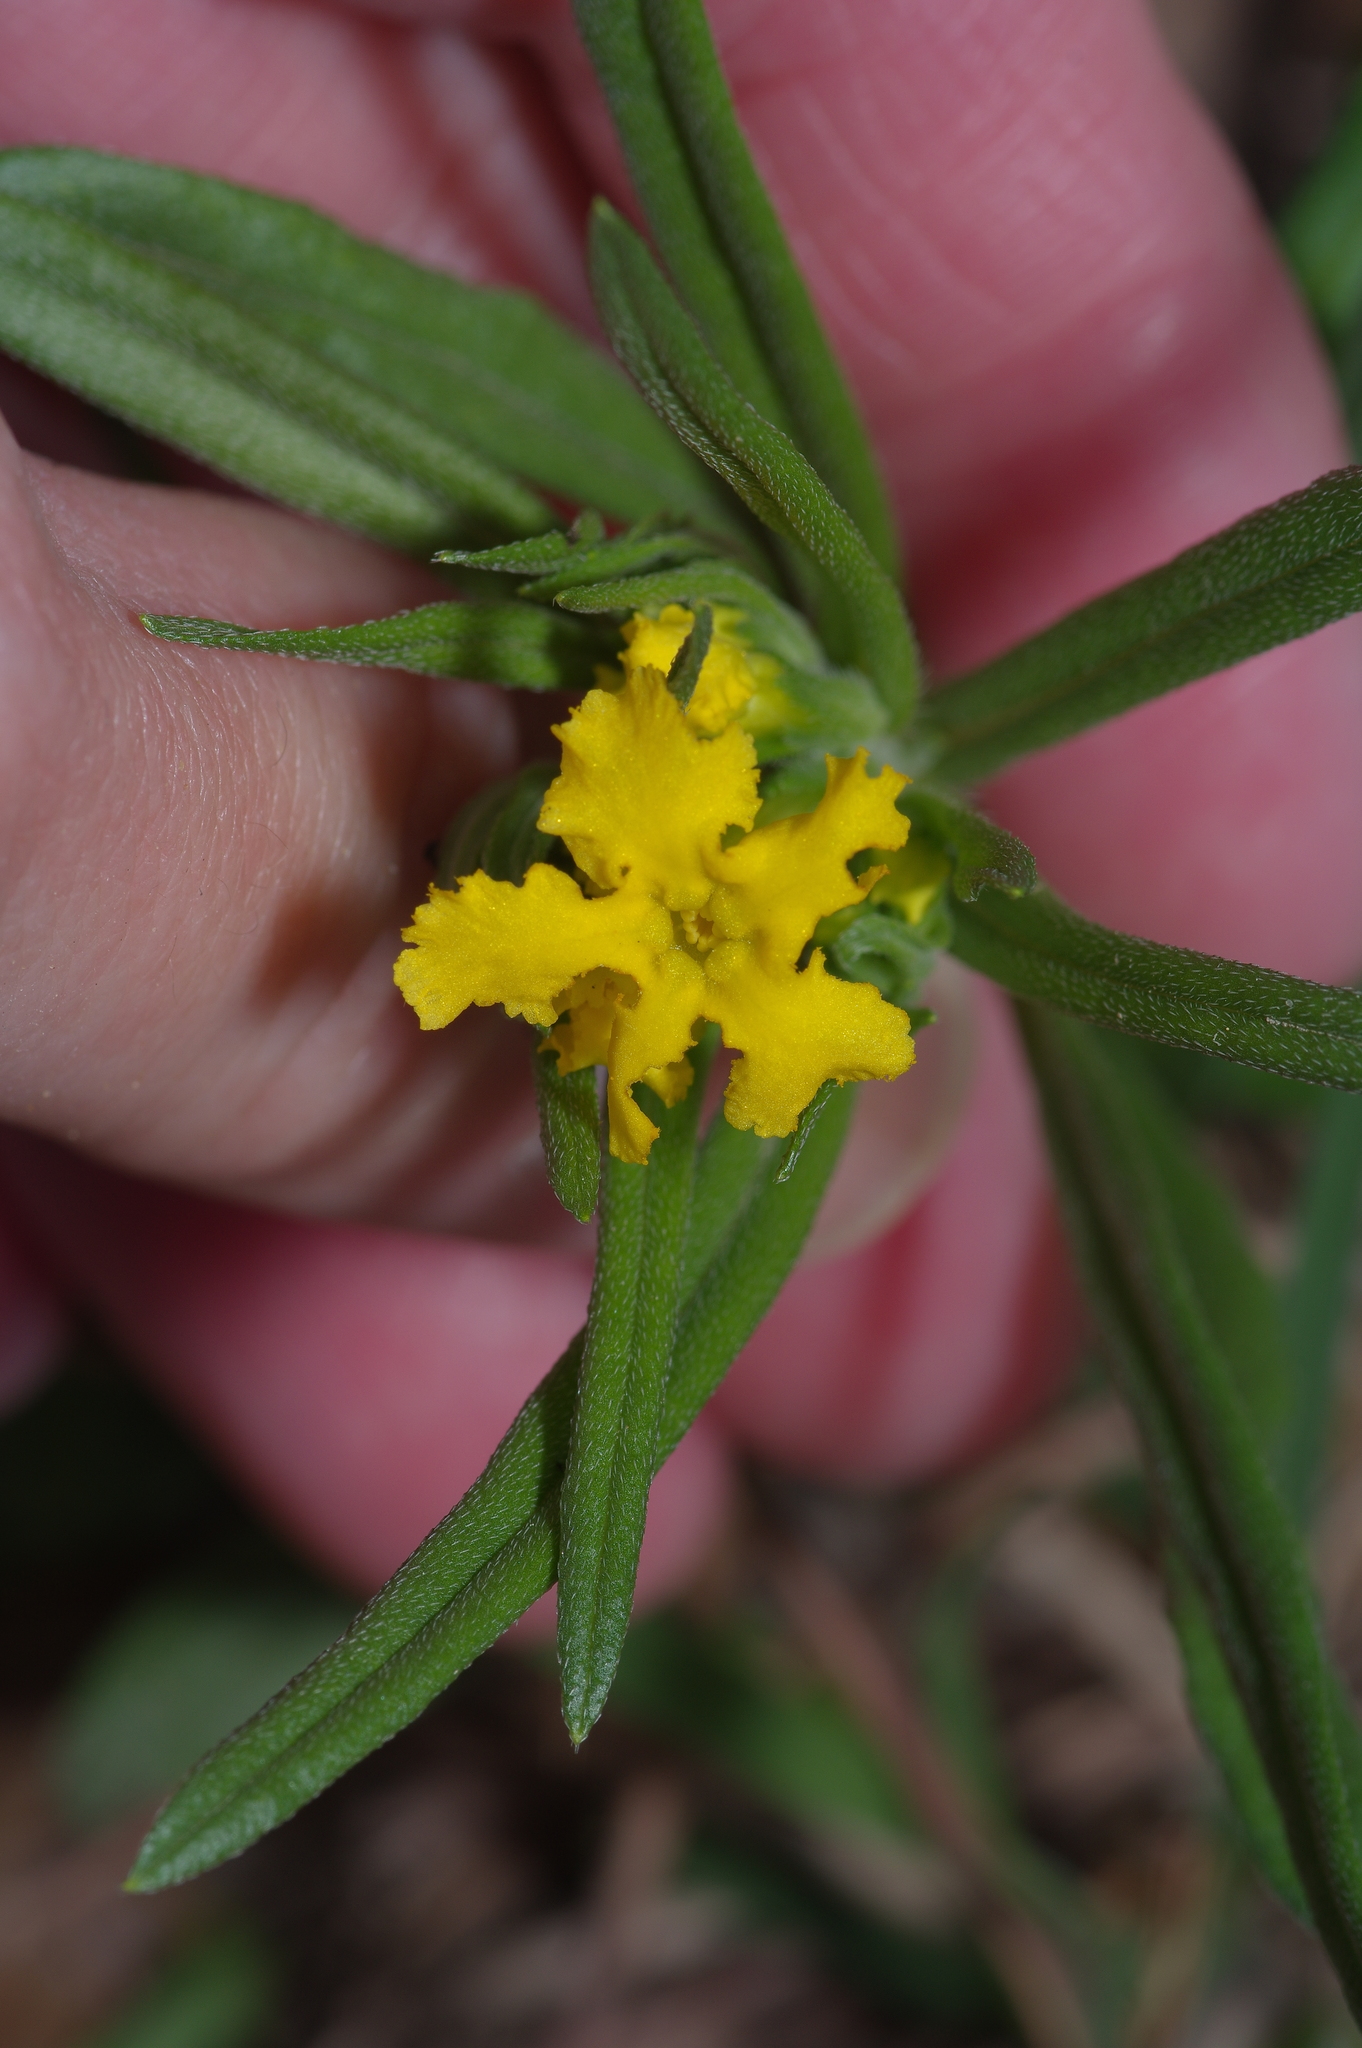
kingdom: Plantae
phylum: Tracheophyta
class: Magnoliopsida
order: Boraginales
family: Boraginaceae
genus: Lithospermum
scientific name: Lithospermum incisum
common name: Fringed gromwell
